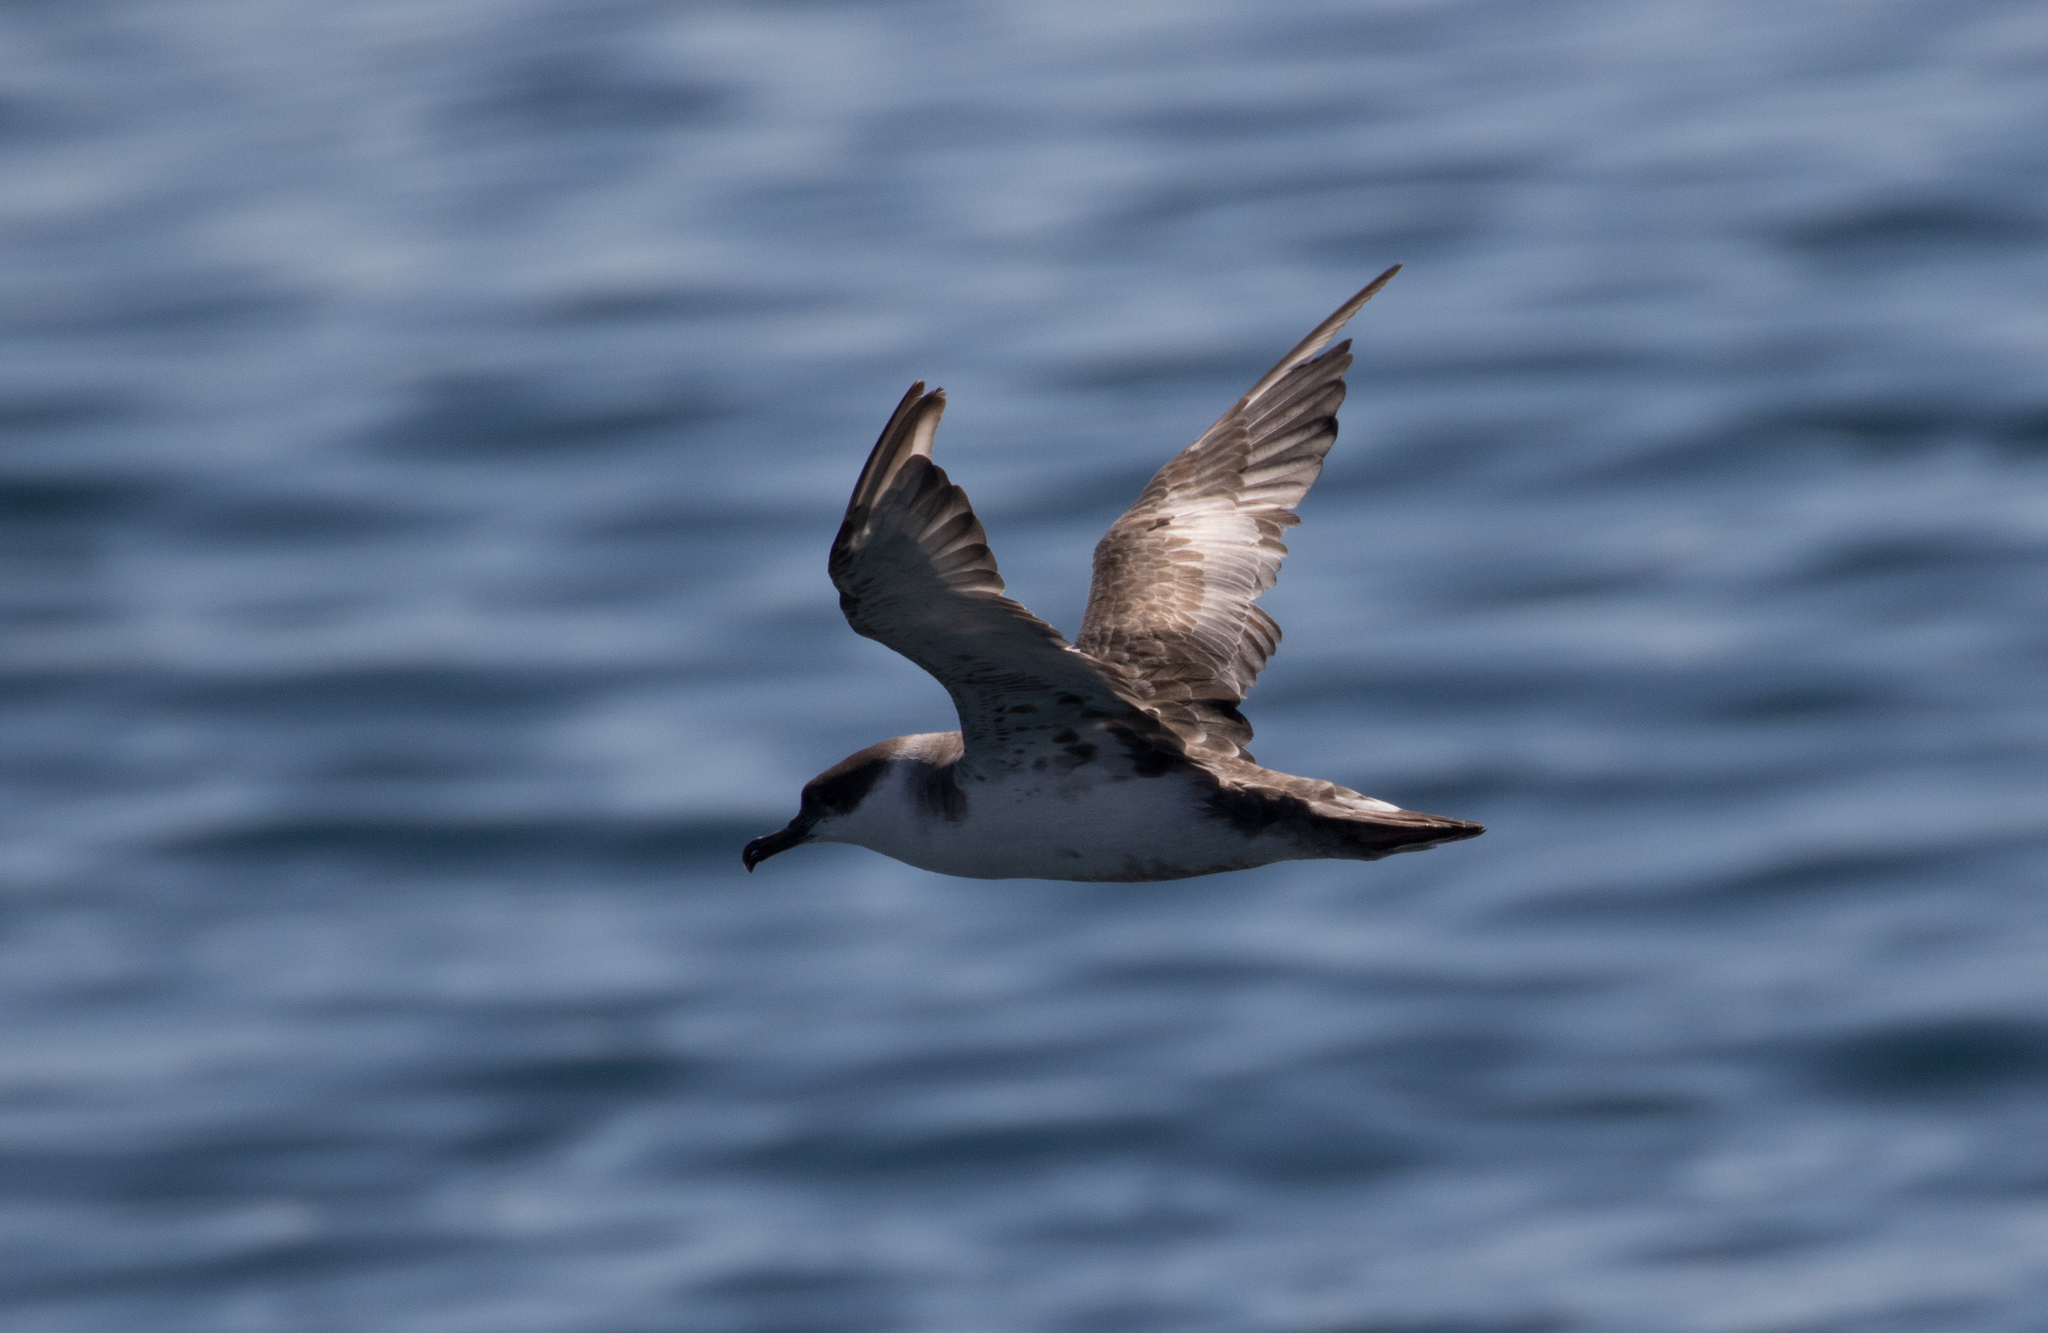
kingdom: Animalia
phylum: Chordata
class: Aves
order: Procellariiformes
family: Procellariidae
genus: Puffinus
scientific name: Puffinus gravis
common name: Great shearwater
